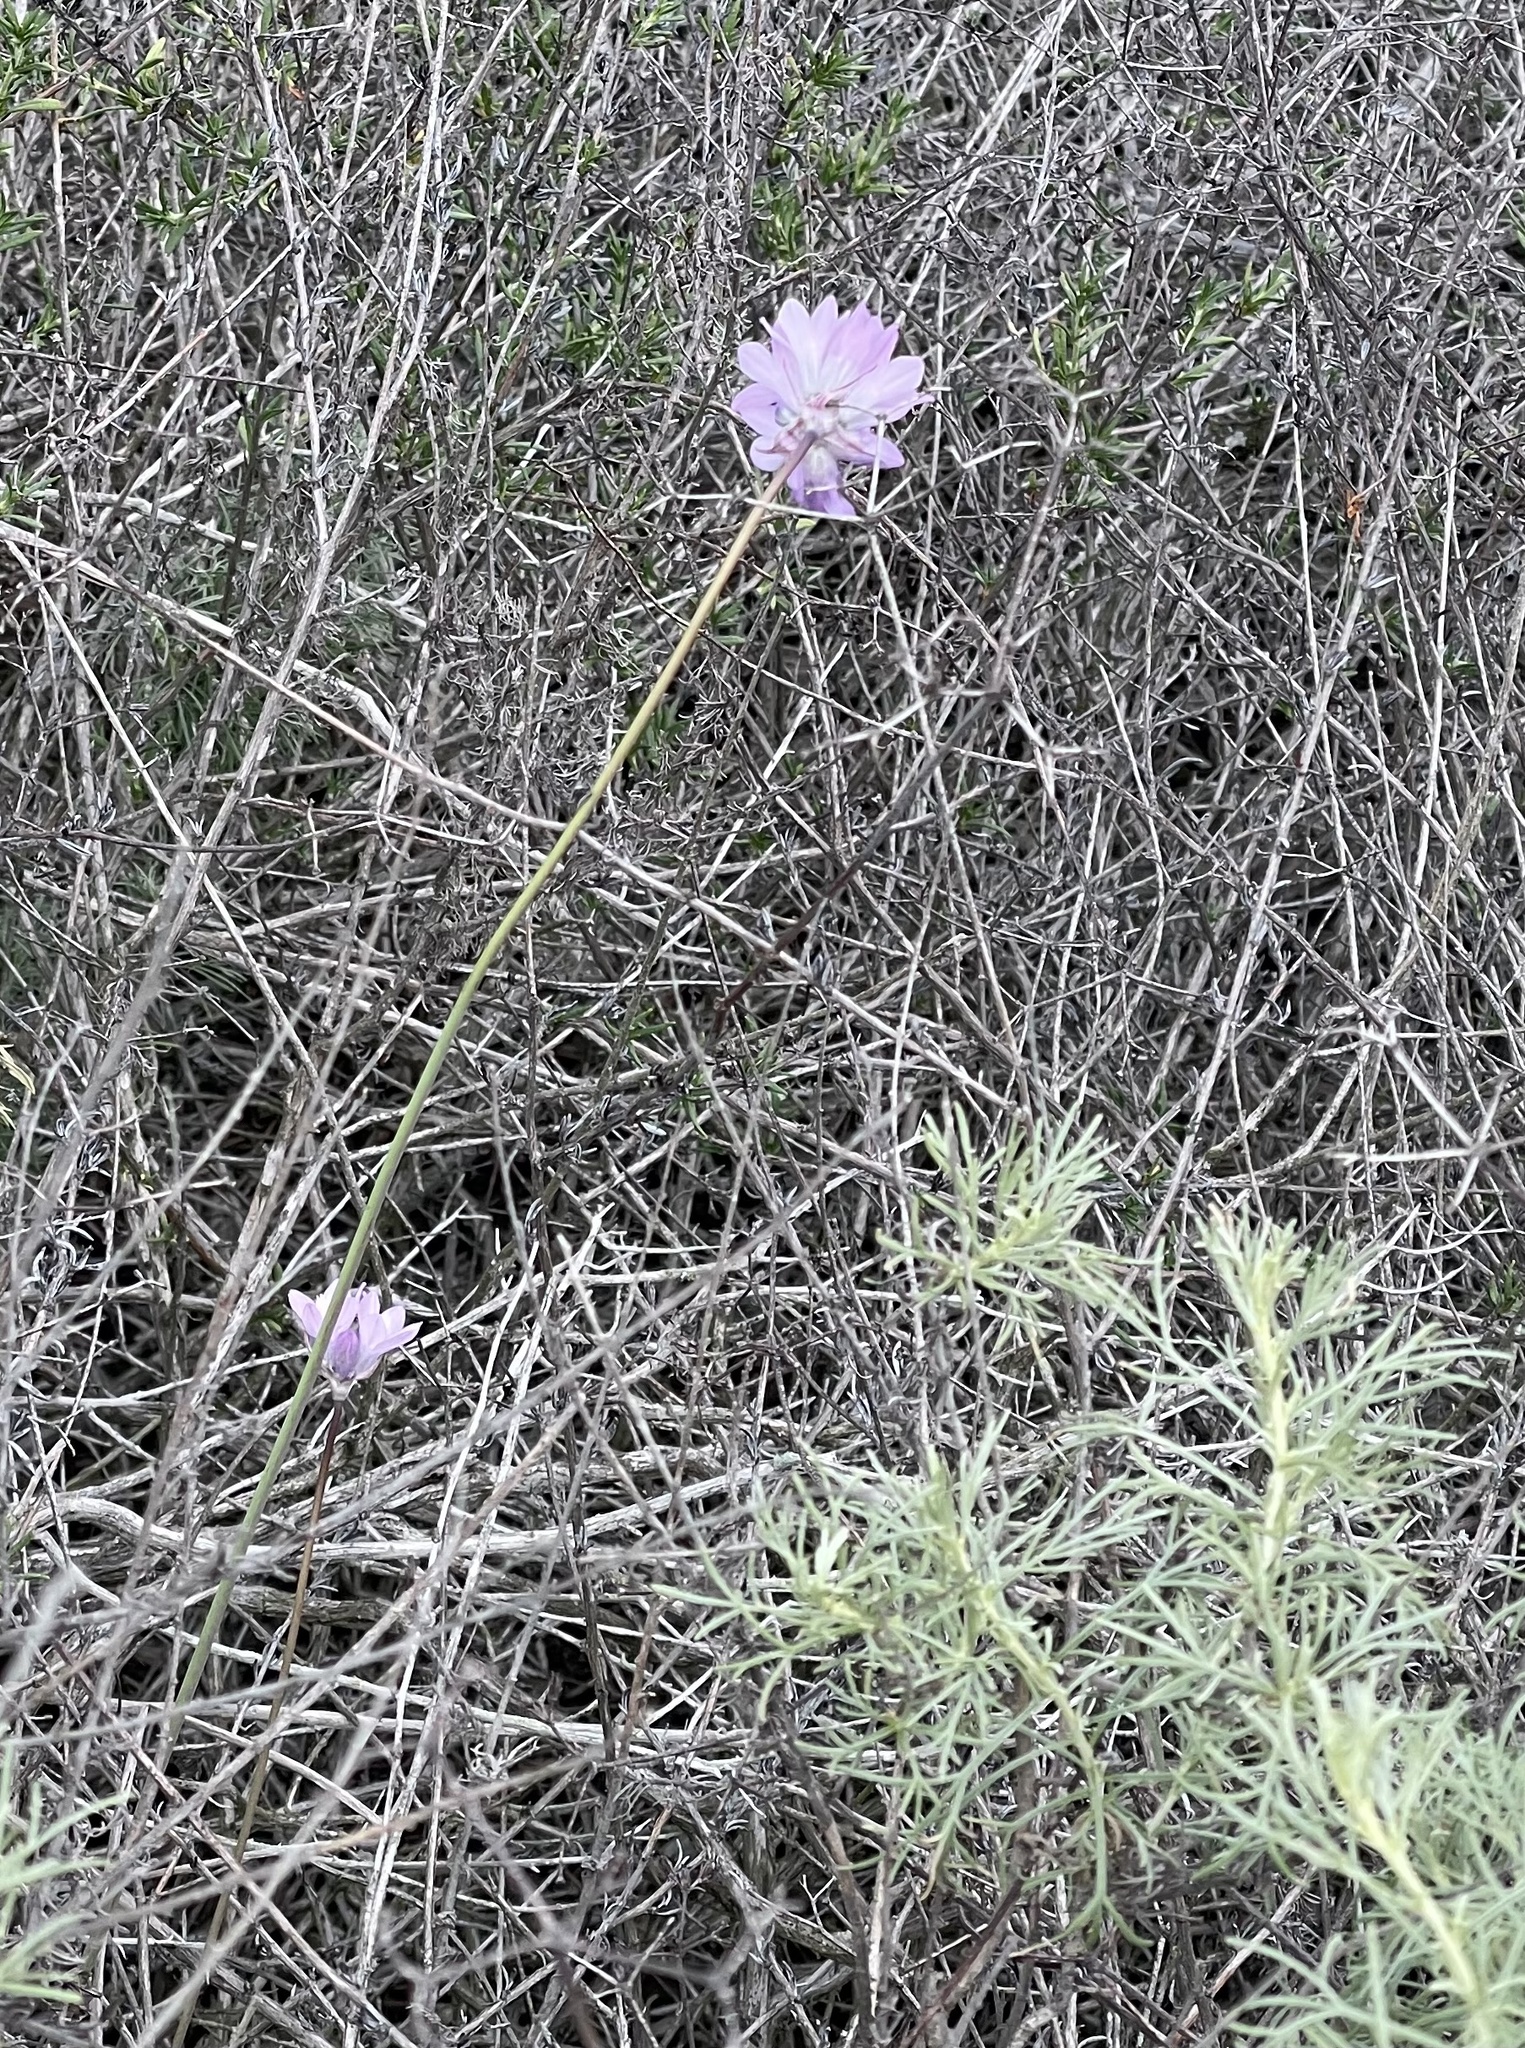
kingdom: Plantae
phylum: Tracheophyta
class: Liliopsida
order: Asparagales
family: Asparagaceae
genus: Dipterostemon
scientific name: Dipterostemon capitatus
